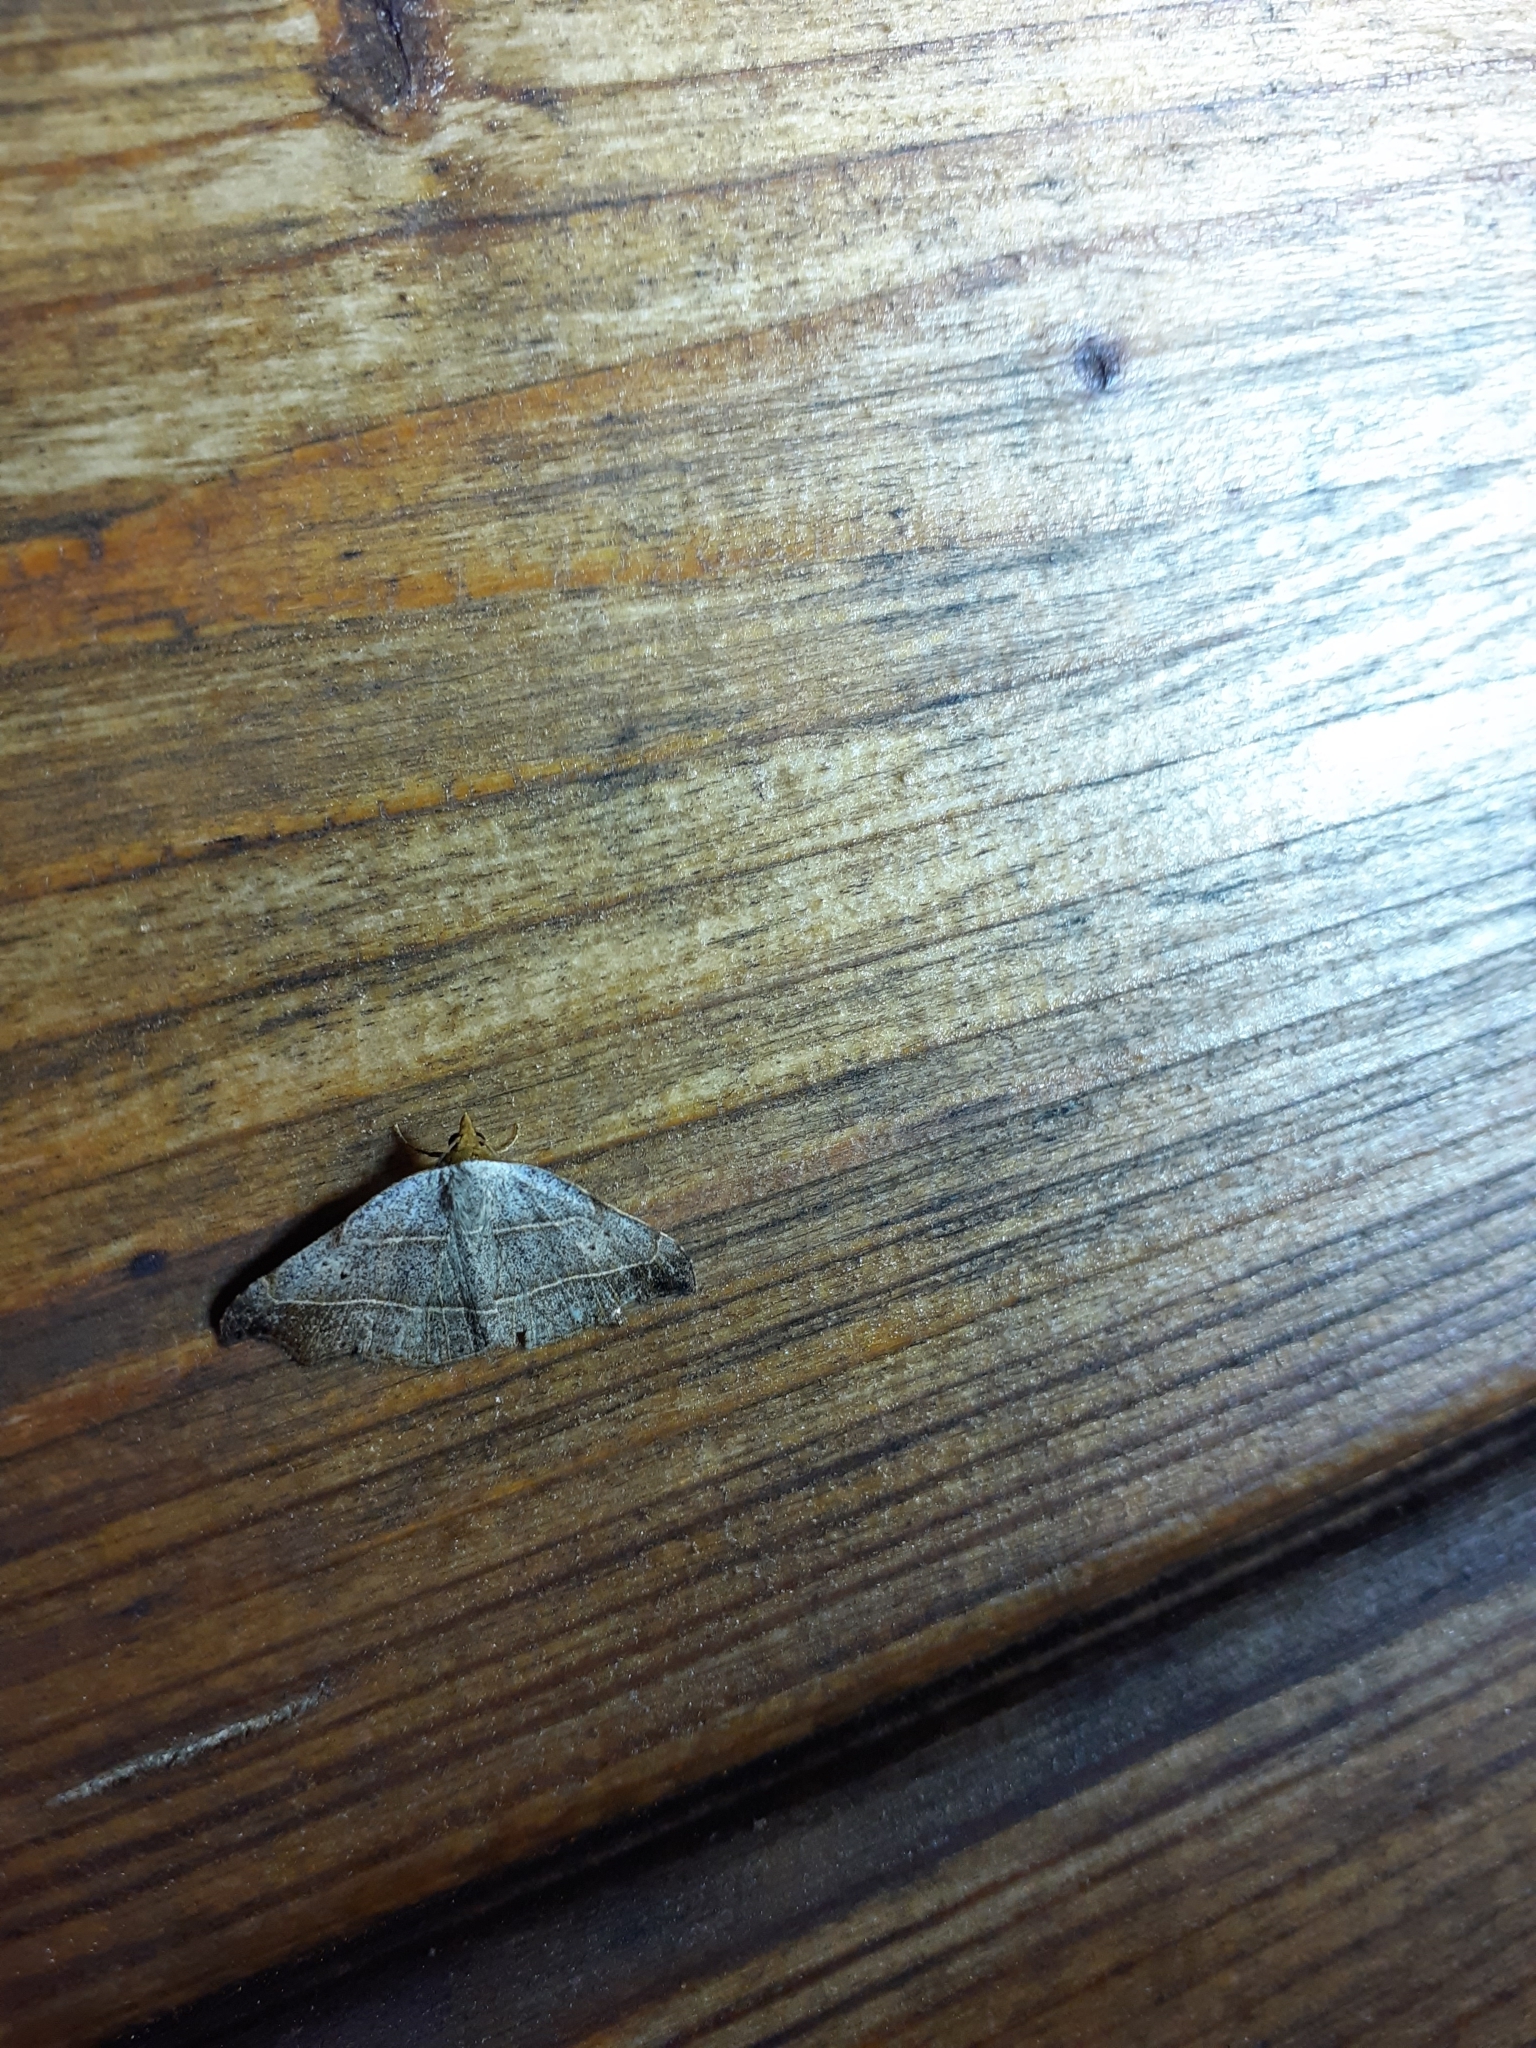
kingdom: Animalia
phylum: Arthropoda
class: Insecta
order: Lepidoptera
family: Erebidae
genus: Laspeyria
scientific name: Laspeyria flexula
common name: Beautiful hook-tip
